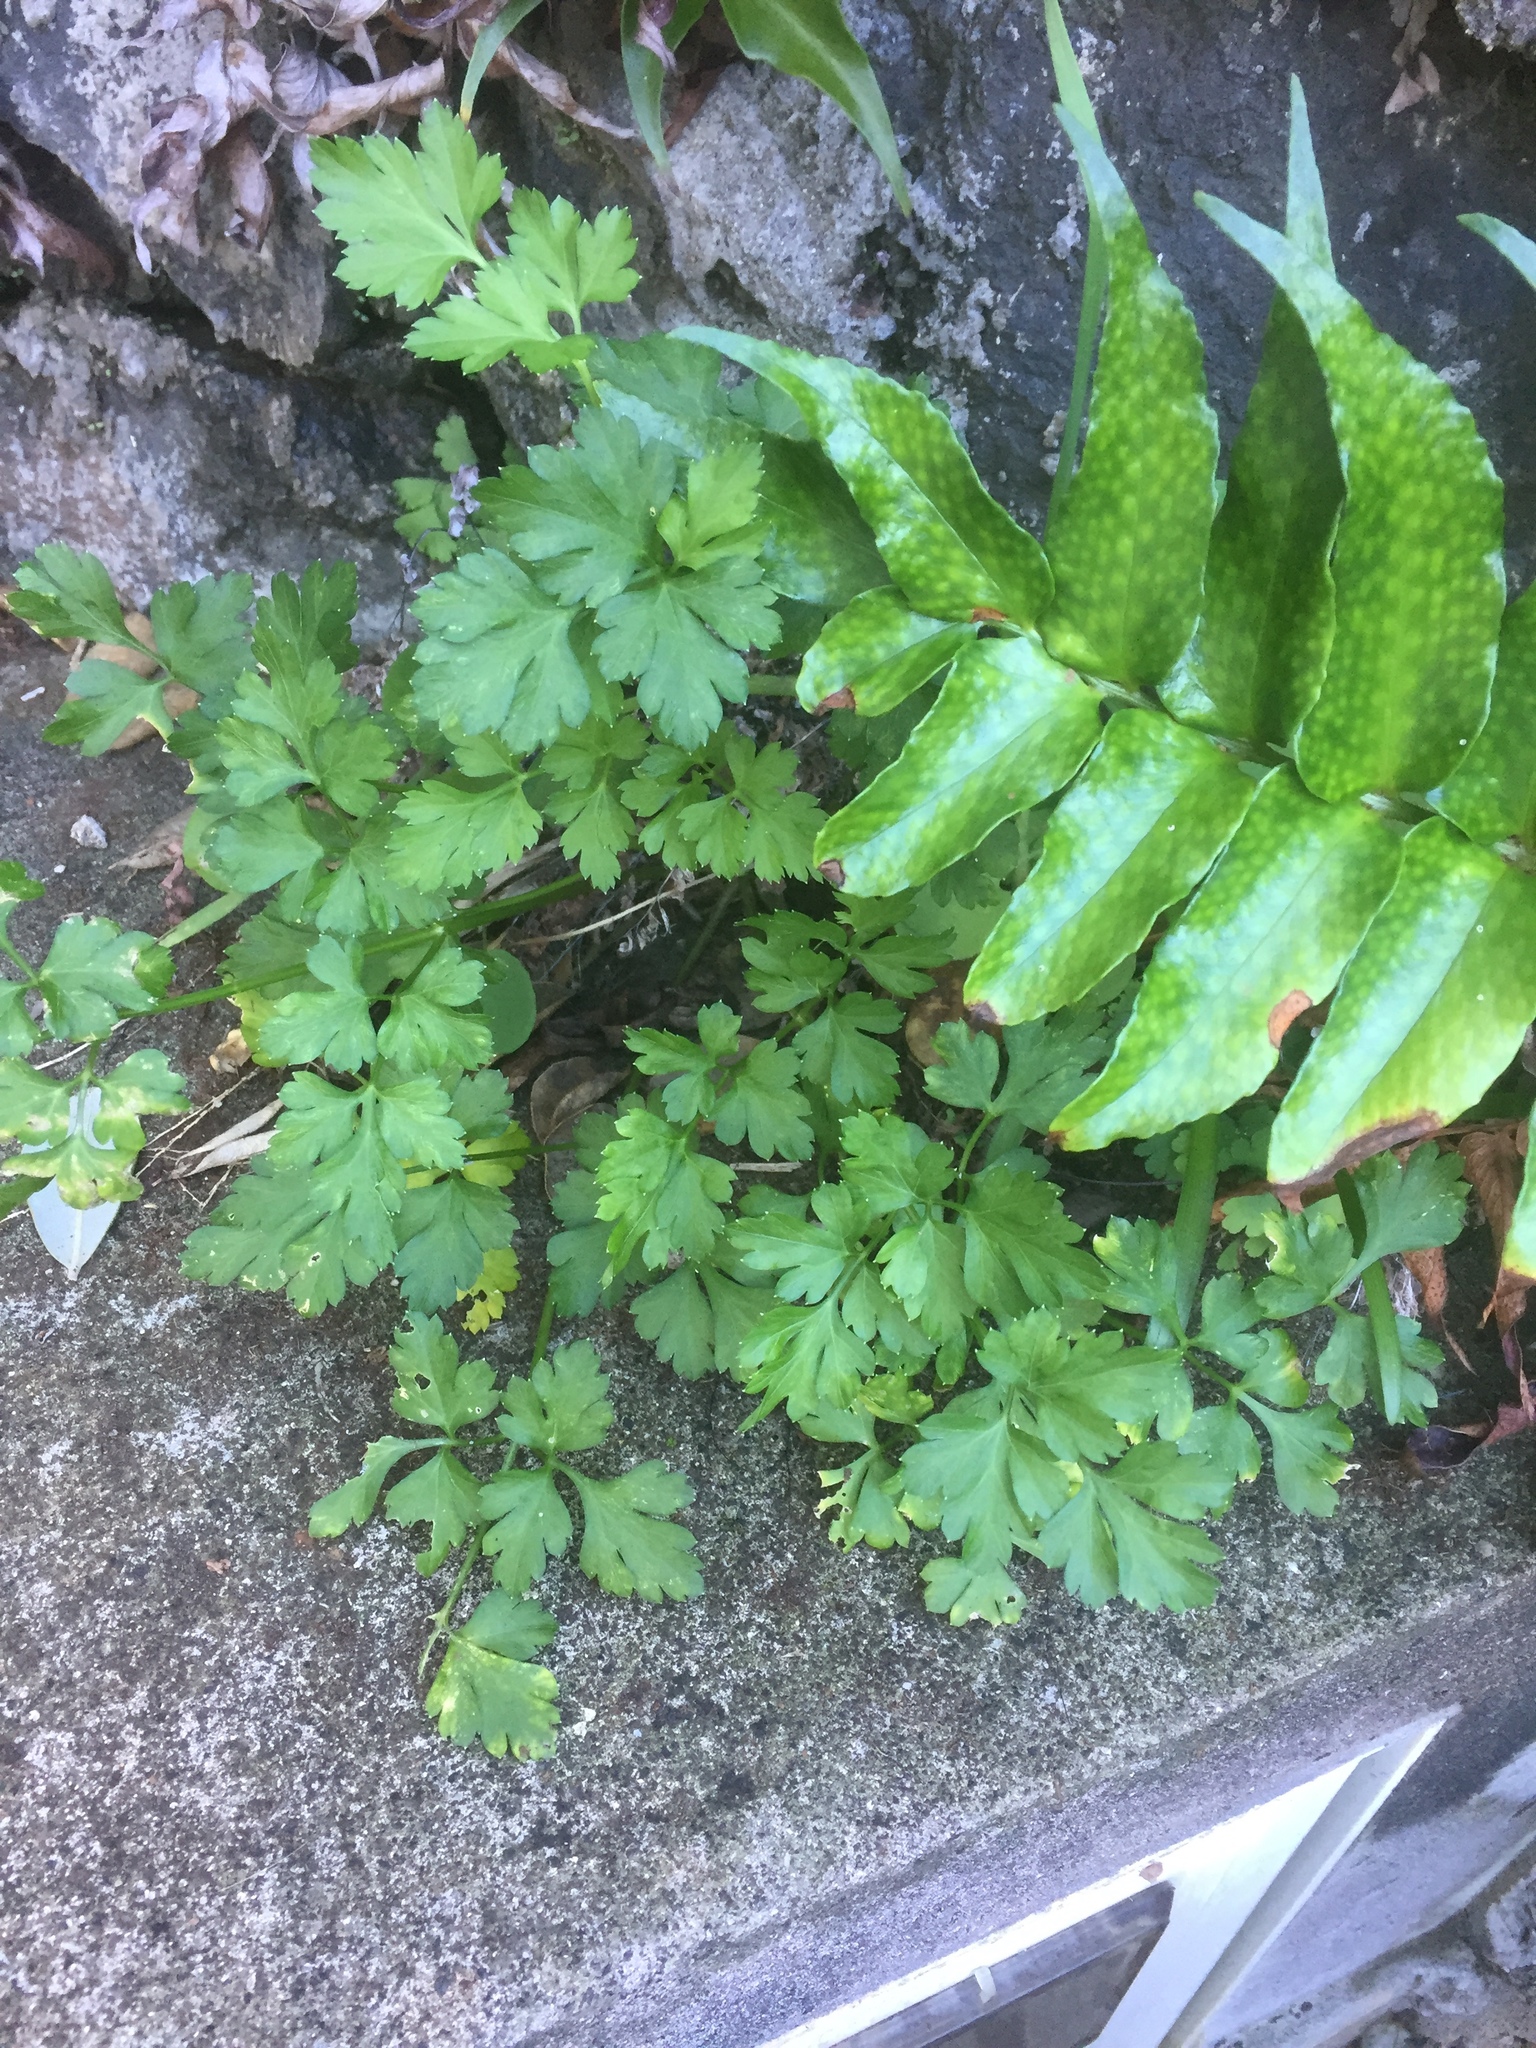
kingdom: Plantae
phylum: Tracheophyta
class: Polypodiopsida
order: Polypodiales
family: Dryopteridaceae
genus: Cyrtomium
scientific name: Cyrtomium falcatum
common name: House holly-fern
